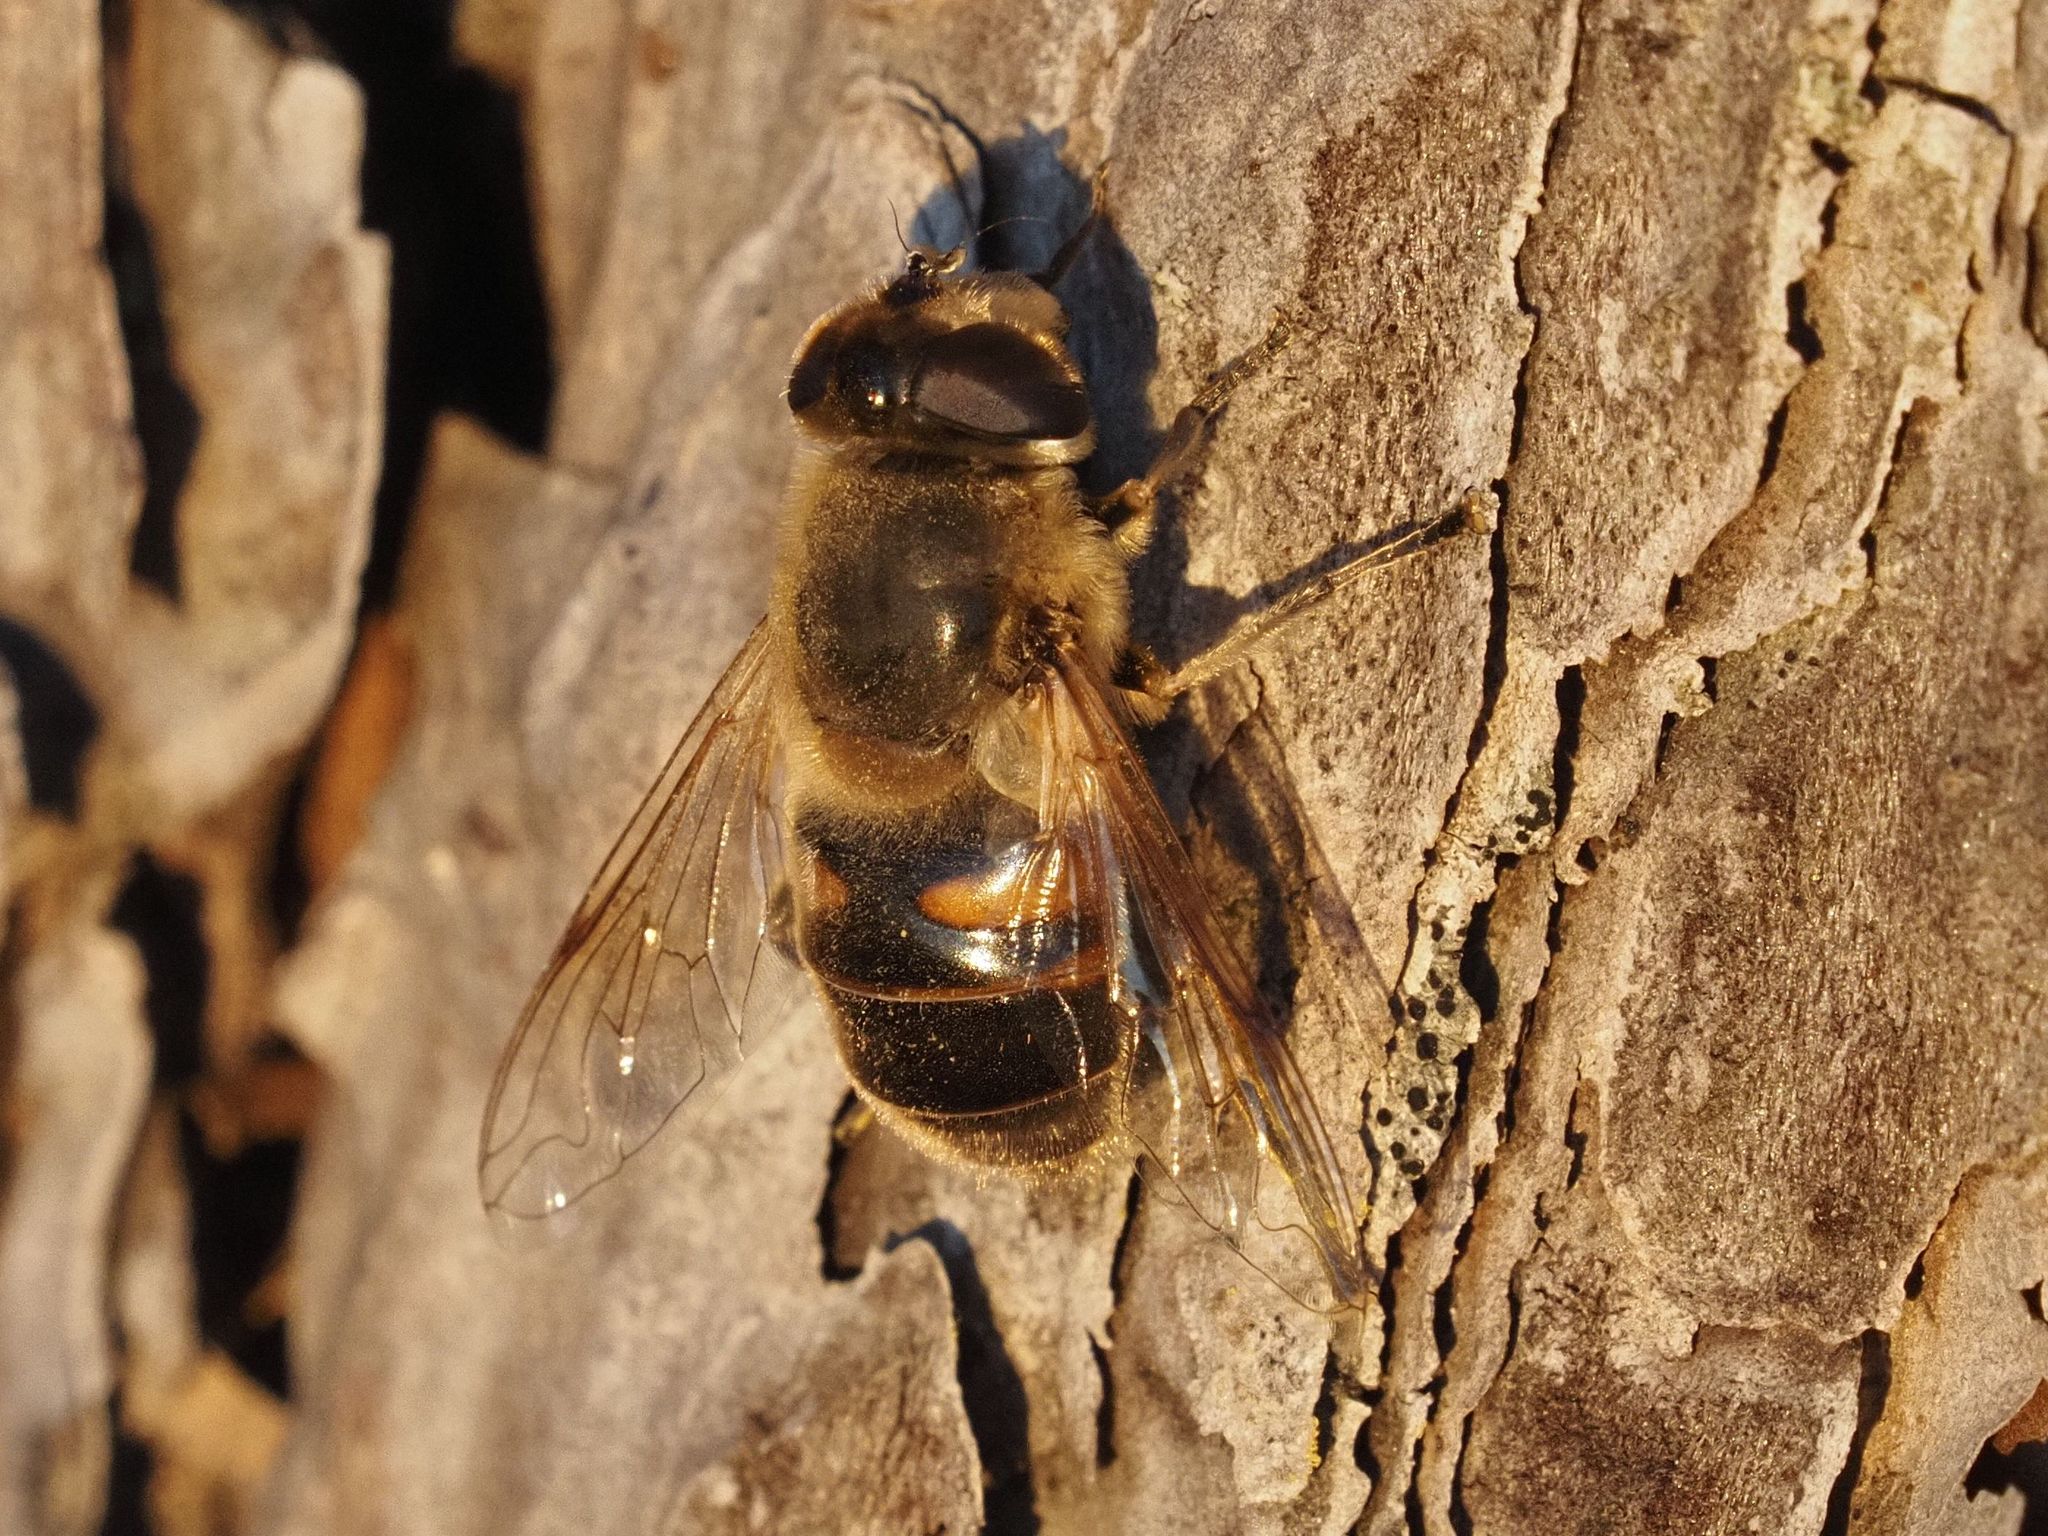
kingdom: Animalia
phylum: Arthropoda
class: Insecta
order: Diptera
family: Syrphidae
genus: Eristalis
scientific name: Eristalis tenax
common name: Drone fly
